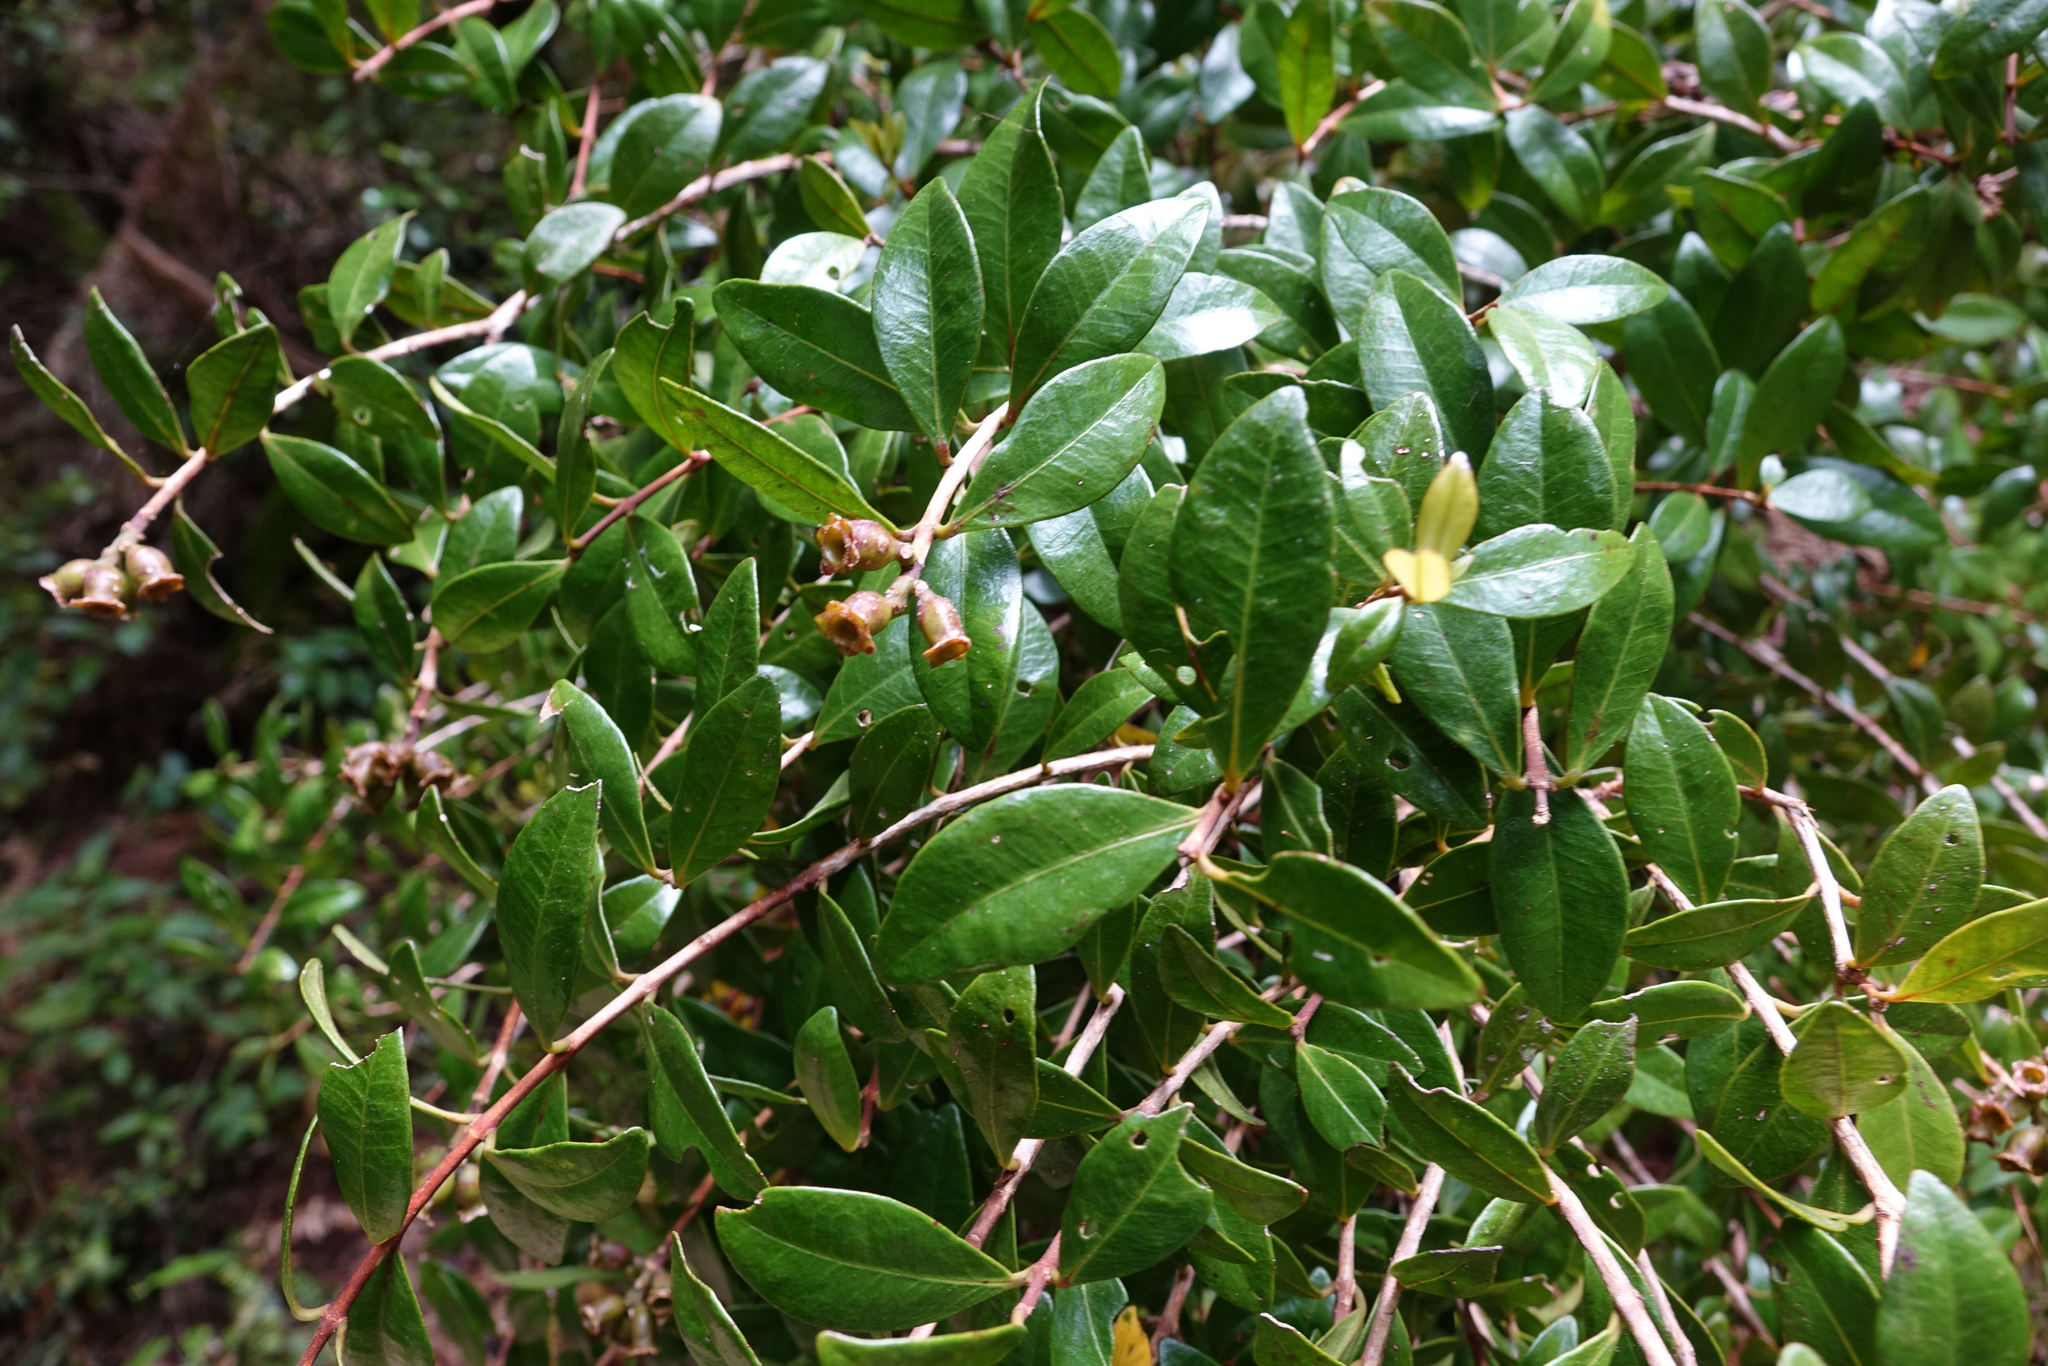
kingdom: Plantae
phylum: Tracheophyta
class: Magnoliopsida
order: Myrtales
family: Myrtaceae
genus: Metrosideros
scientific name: Metrosideros fulgens
